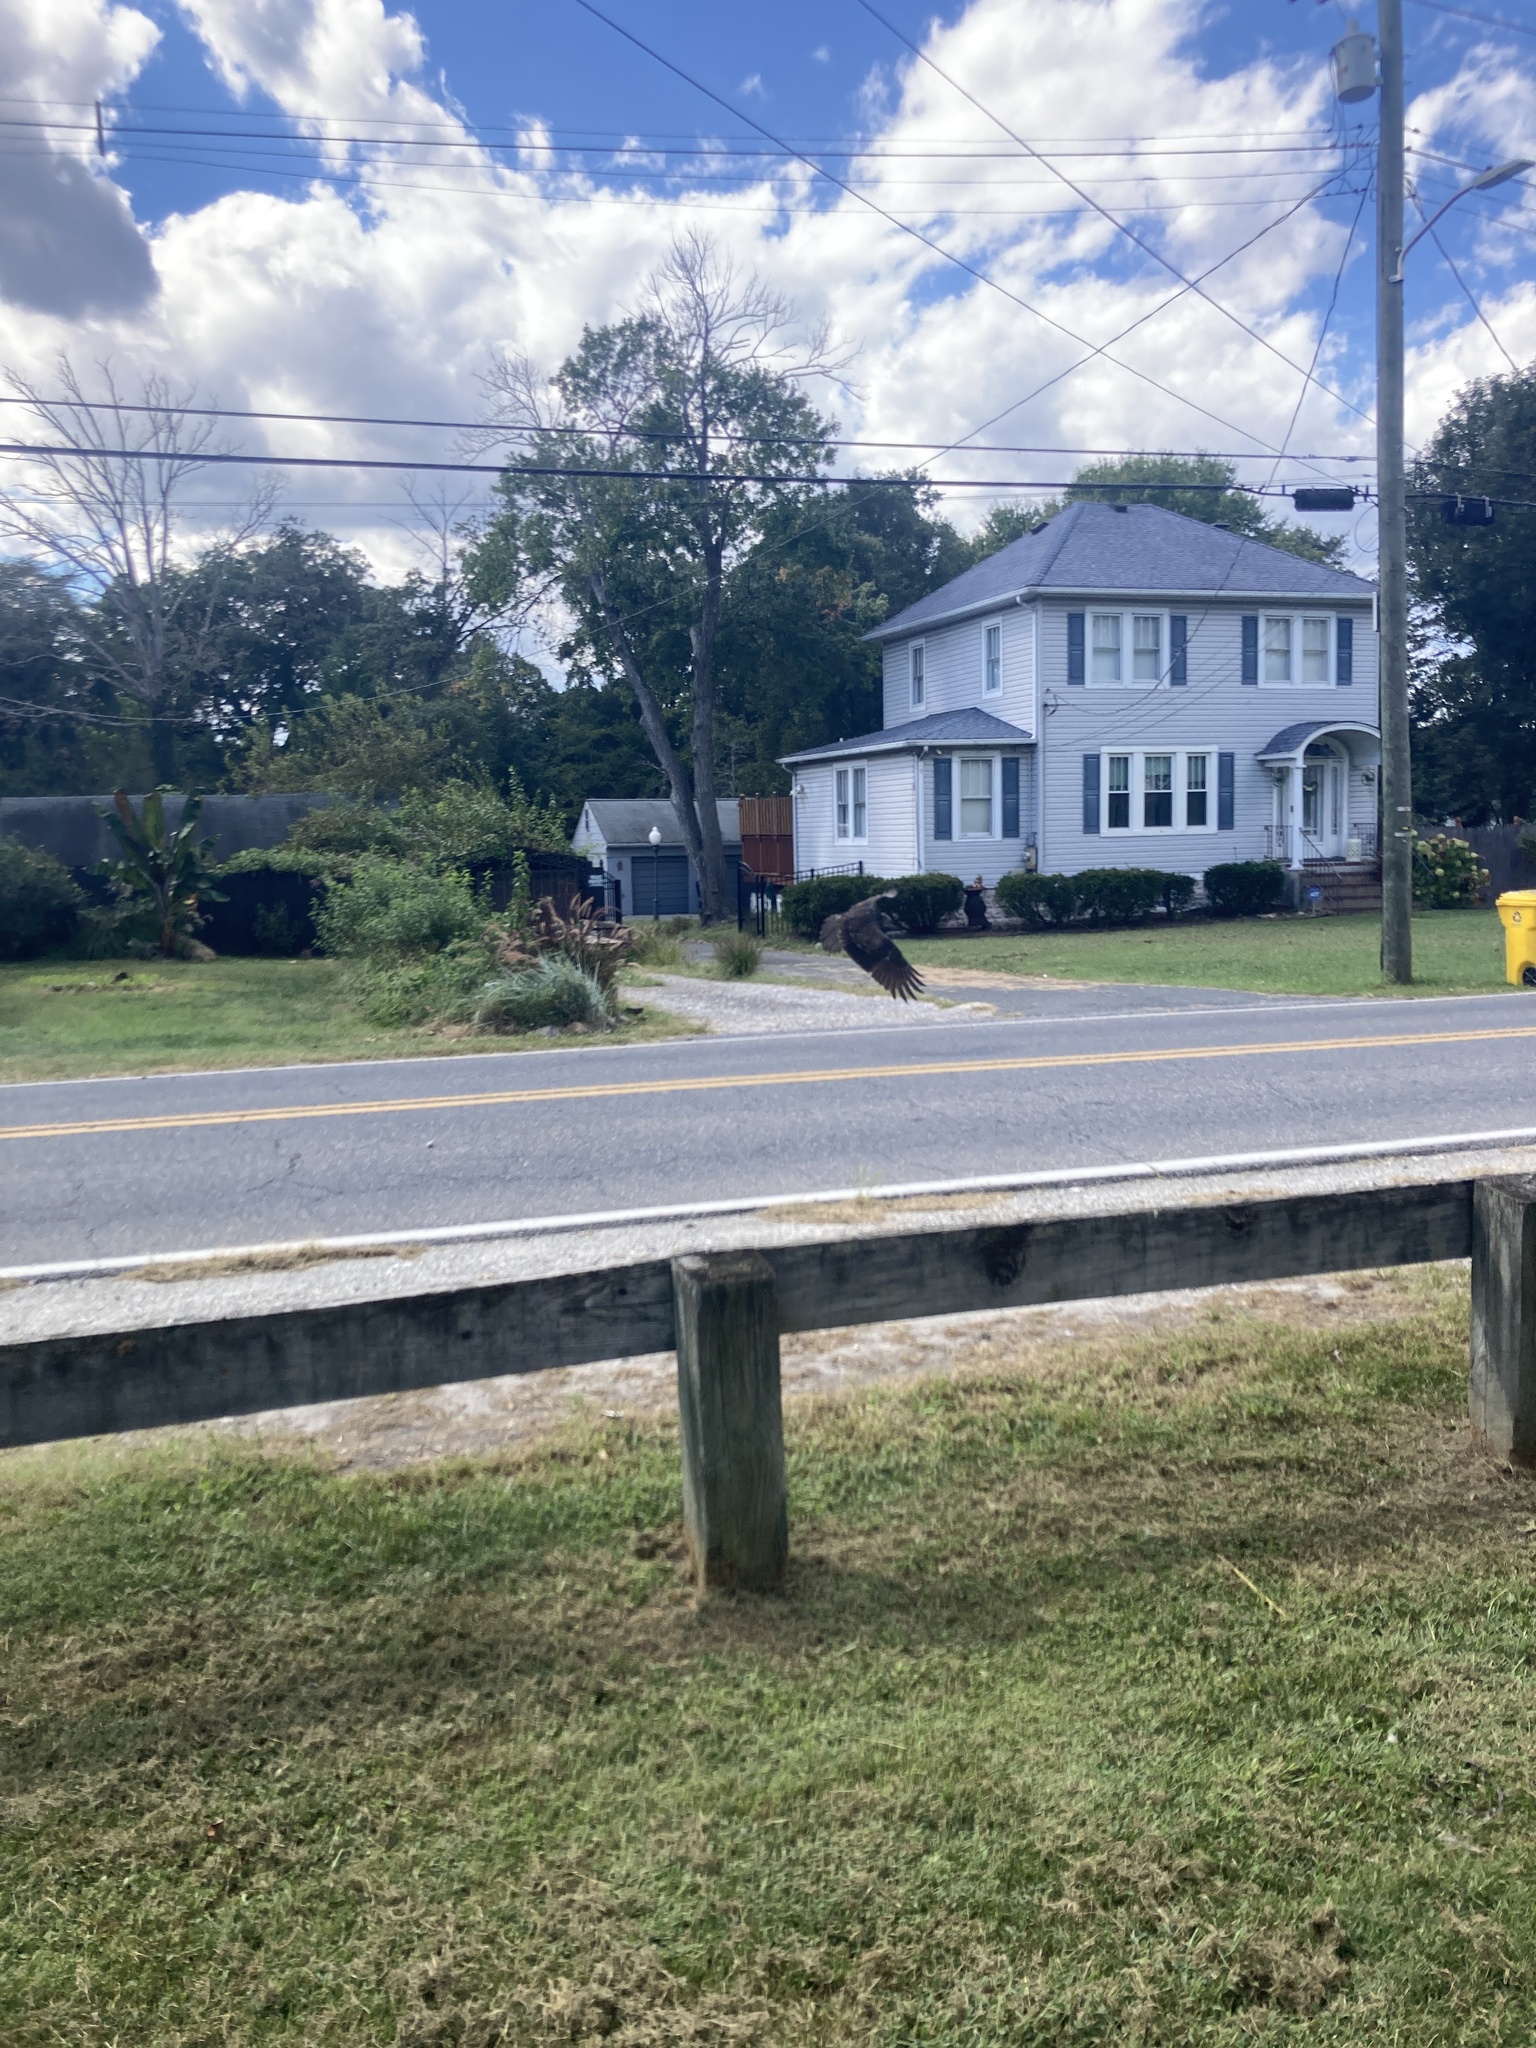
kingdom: Animalia
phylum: Chordata
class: Aves
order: Accipitriformes
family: Cathartidae
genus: Cathartes
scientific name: Cathartes aura
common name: Turkey vulture
